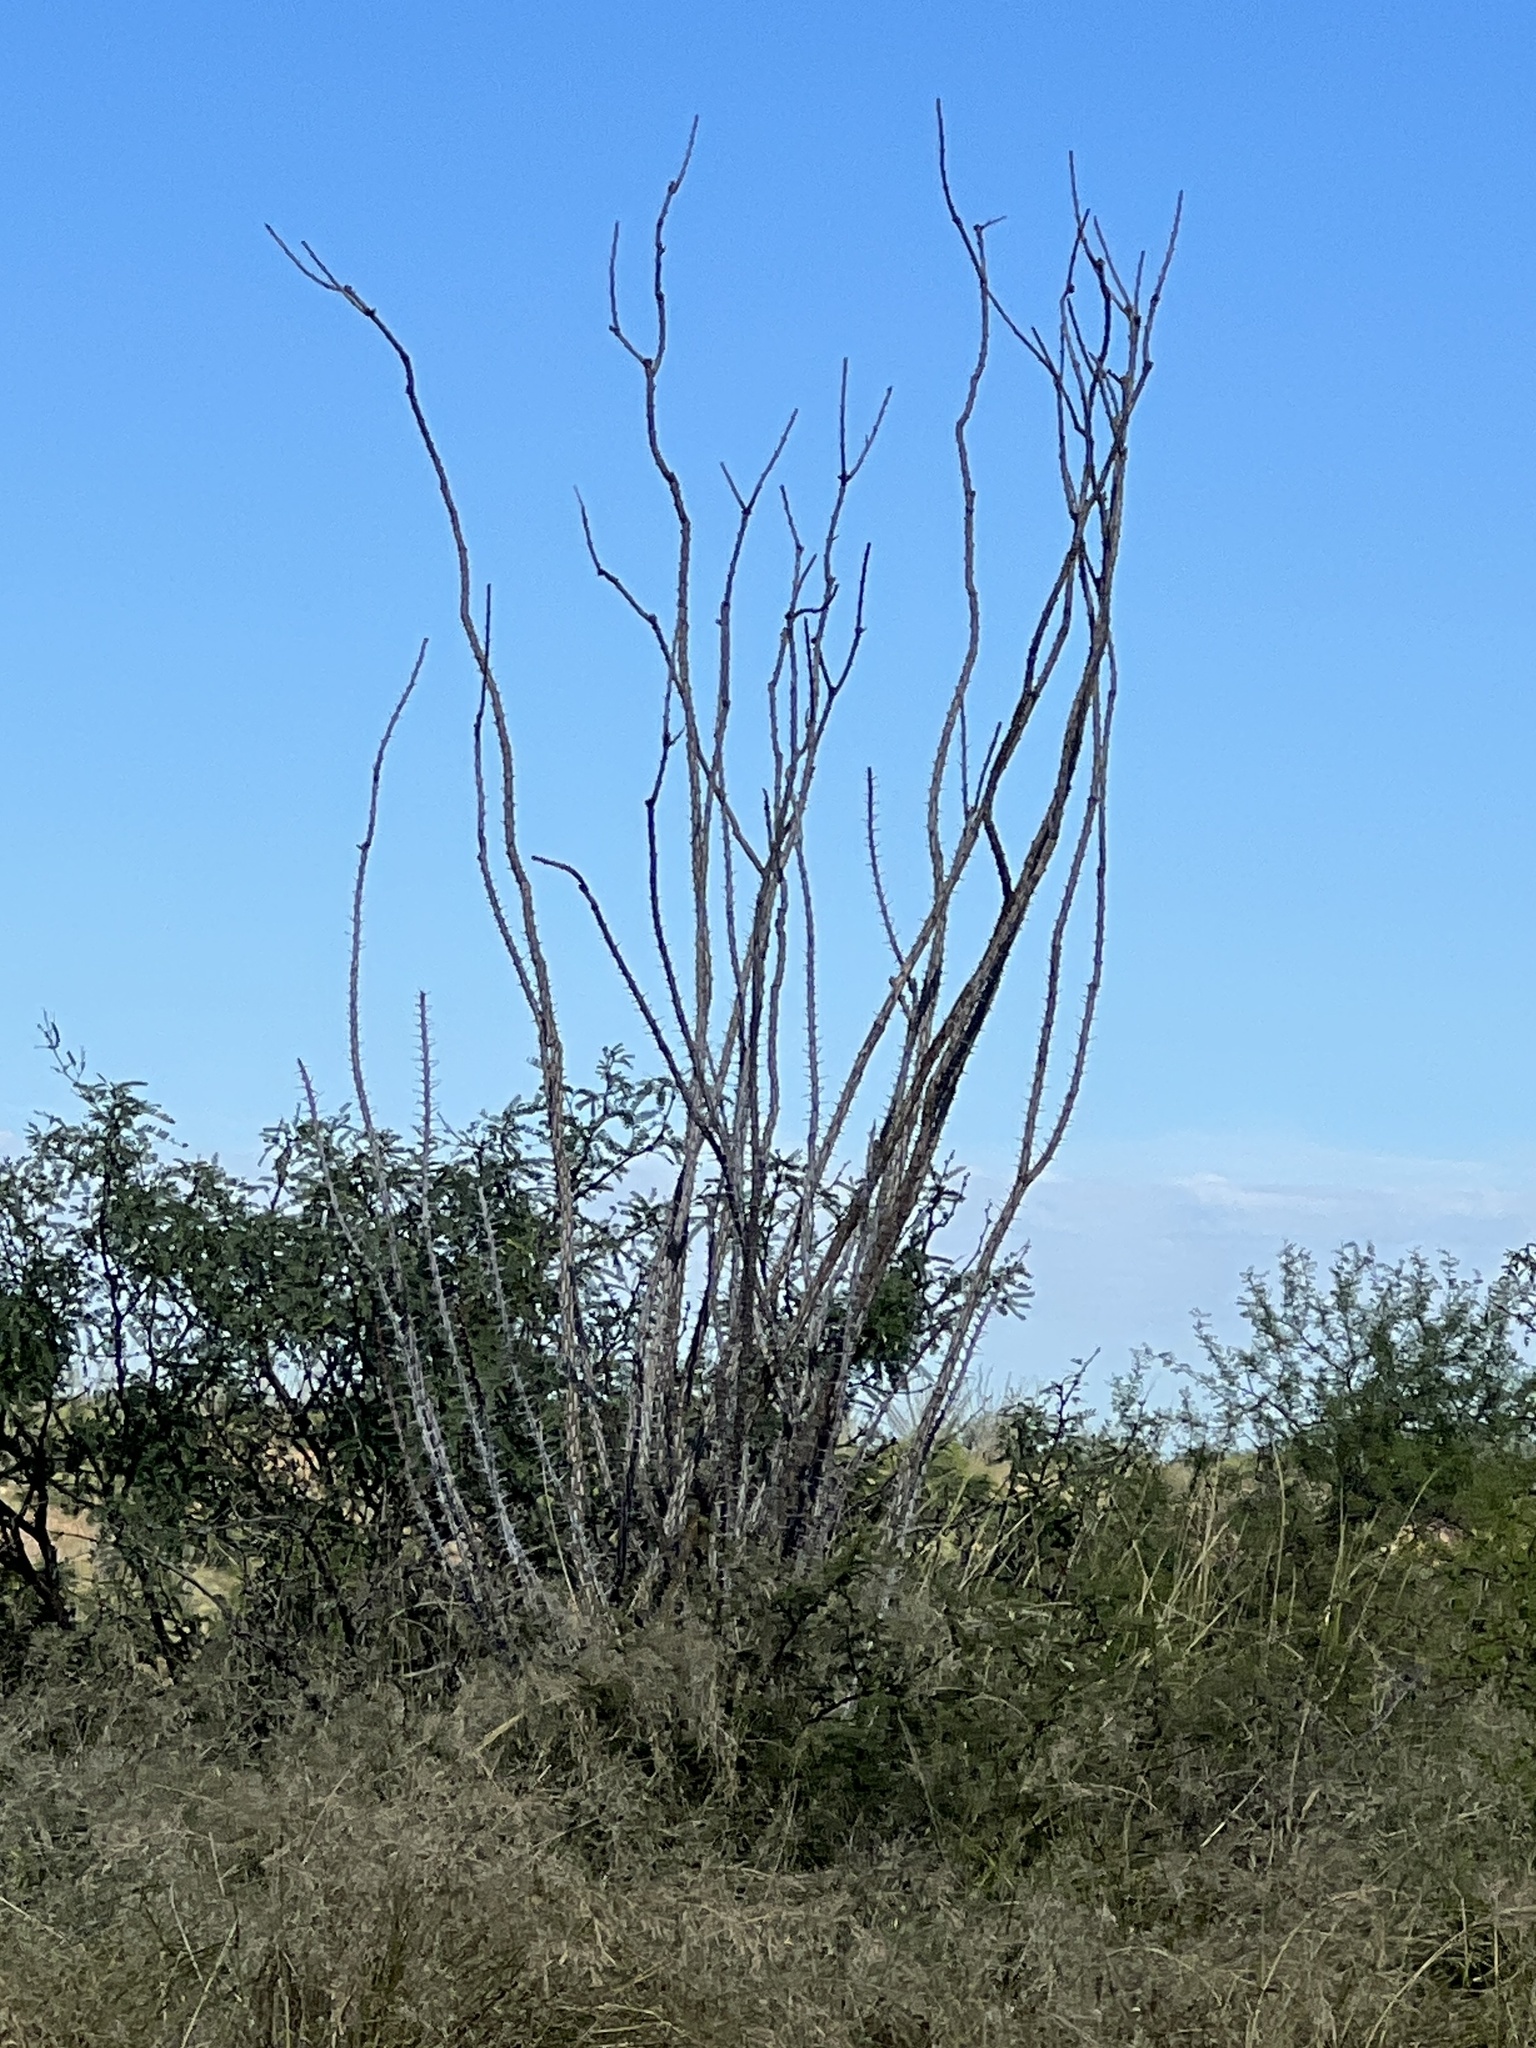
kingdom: Plantae
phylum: Tracheophyta
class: Magnoliopsida
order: Ericales
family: Fouquieriaceae
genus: Fouquieria
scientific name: Fouquieria splendens
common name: Vine-cactus
